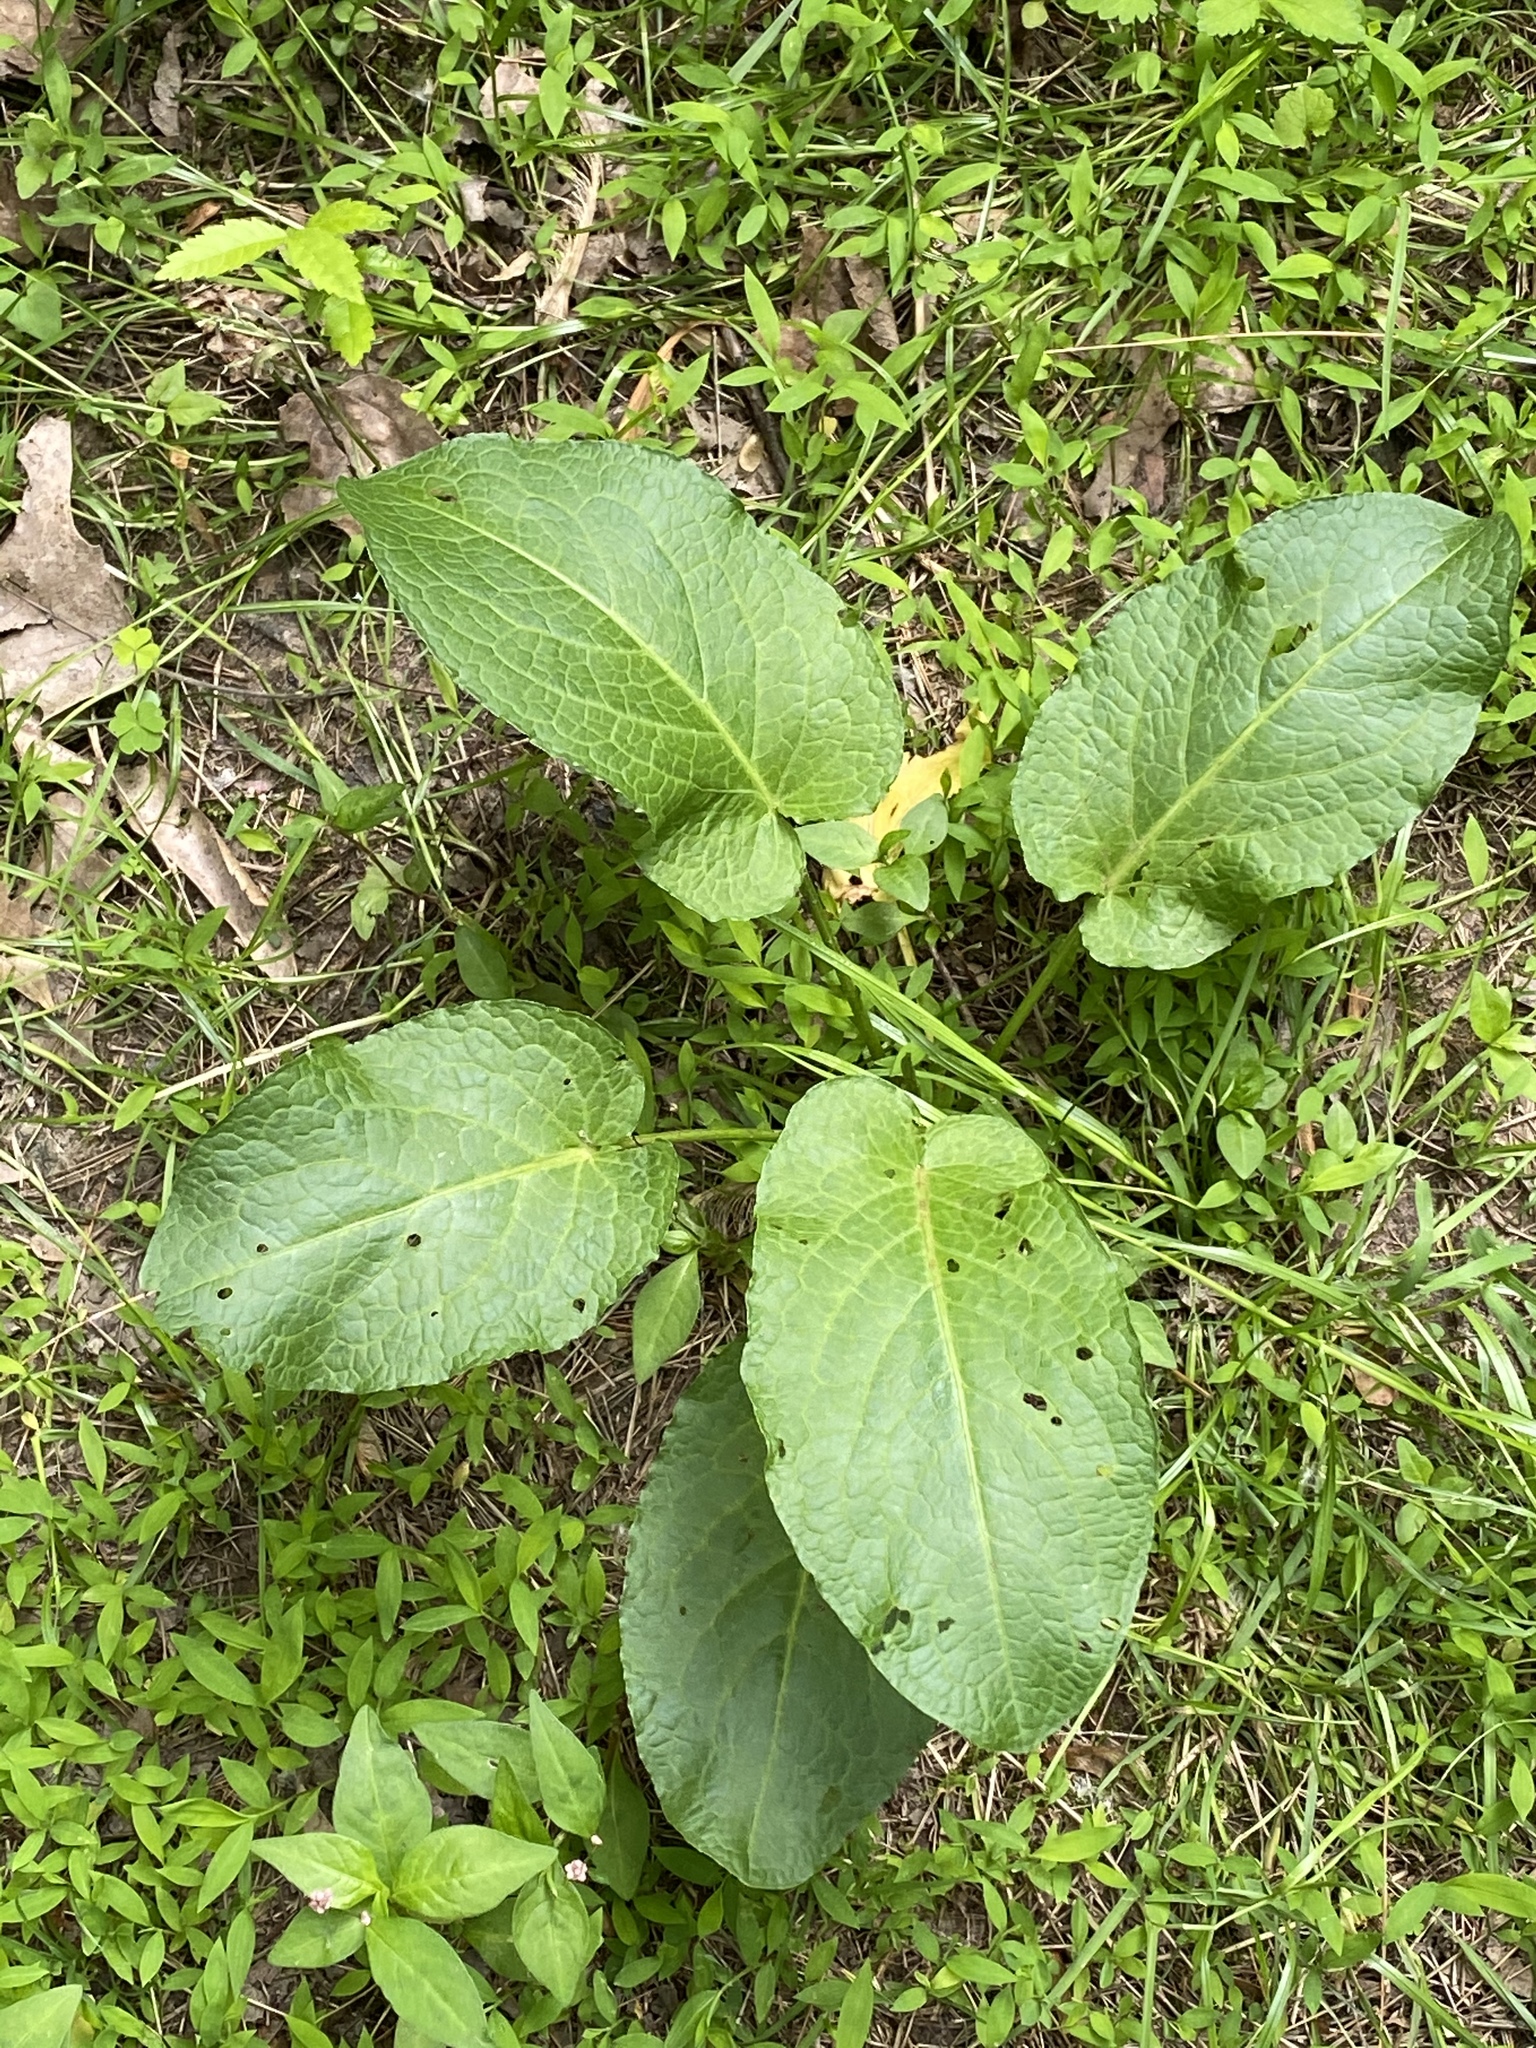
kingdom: Plantae
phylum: Tracheophyta
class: Magnoliopsida
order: Caryophyllales
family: Polygonaceae
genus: Rumex
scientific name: Rumex obtusifolius
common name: Bitter dock
